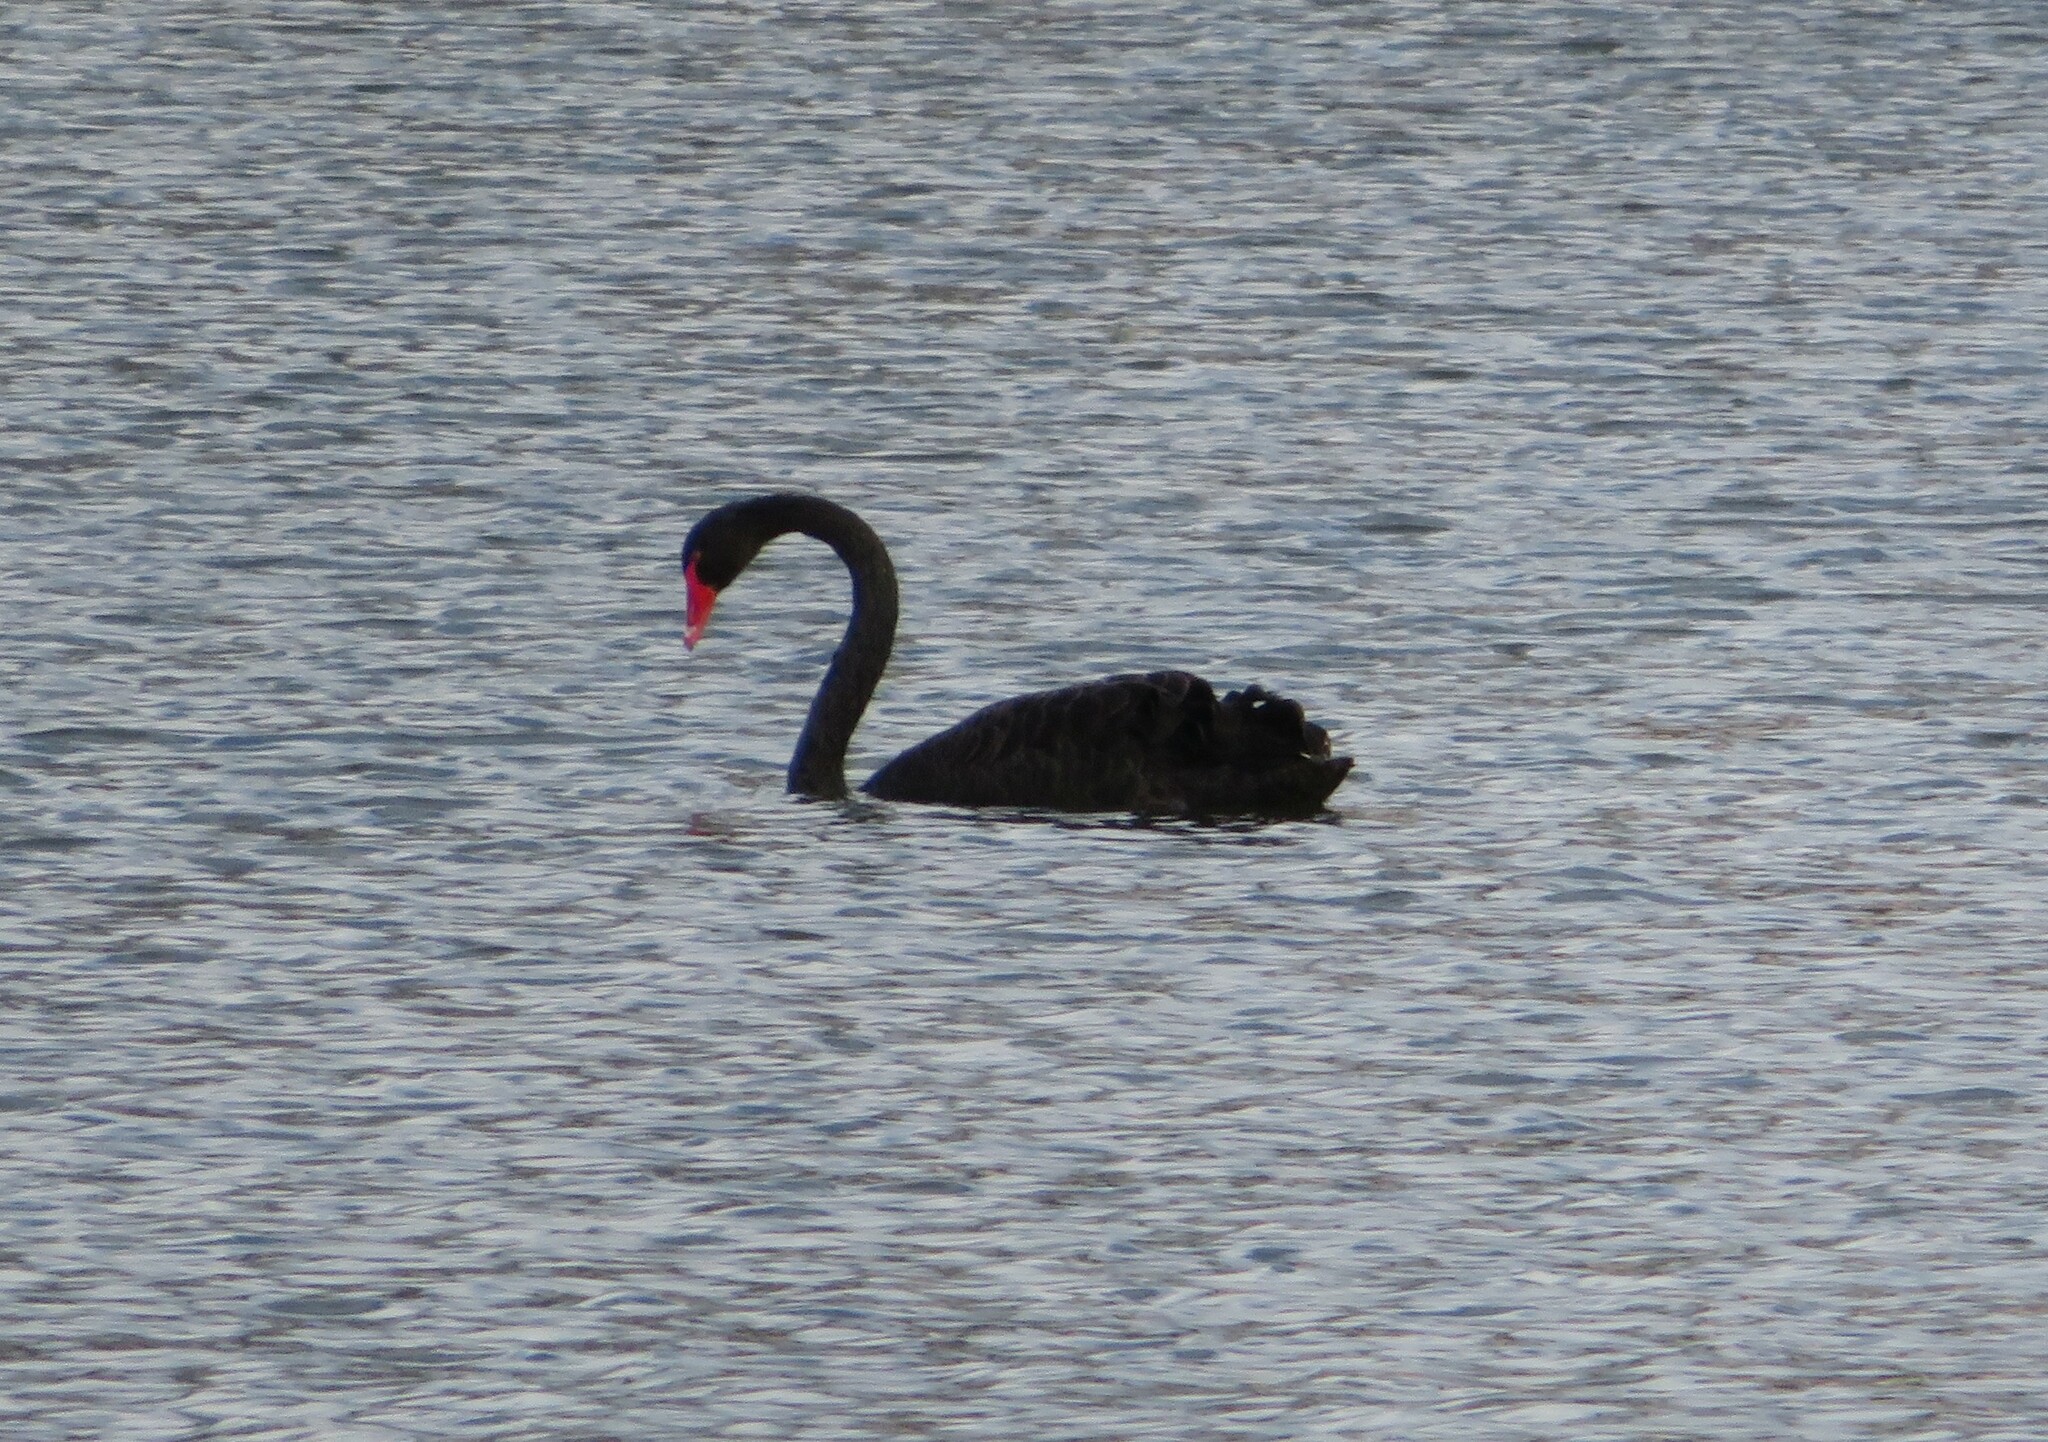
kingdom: Animalia
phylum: Chordata
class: Aves
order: Anseriformes
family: Anatidae
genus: Cygnus
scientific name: Cygnus atratus
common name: Black swan
